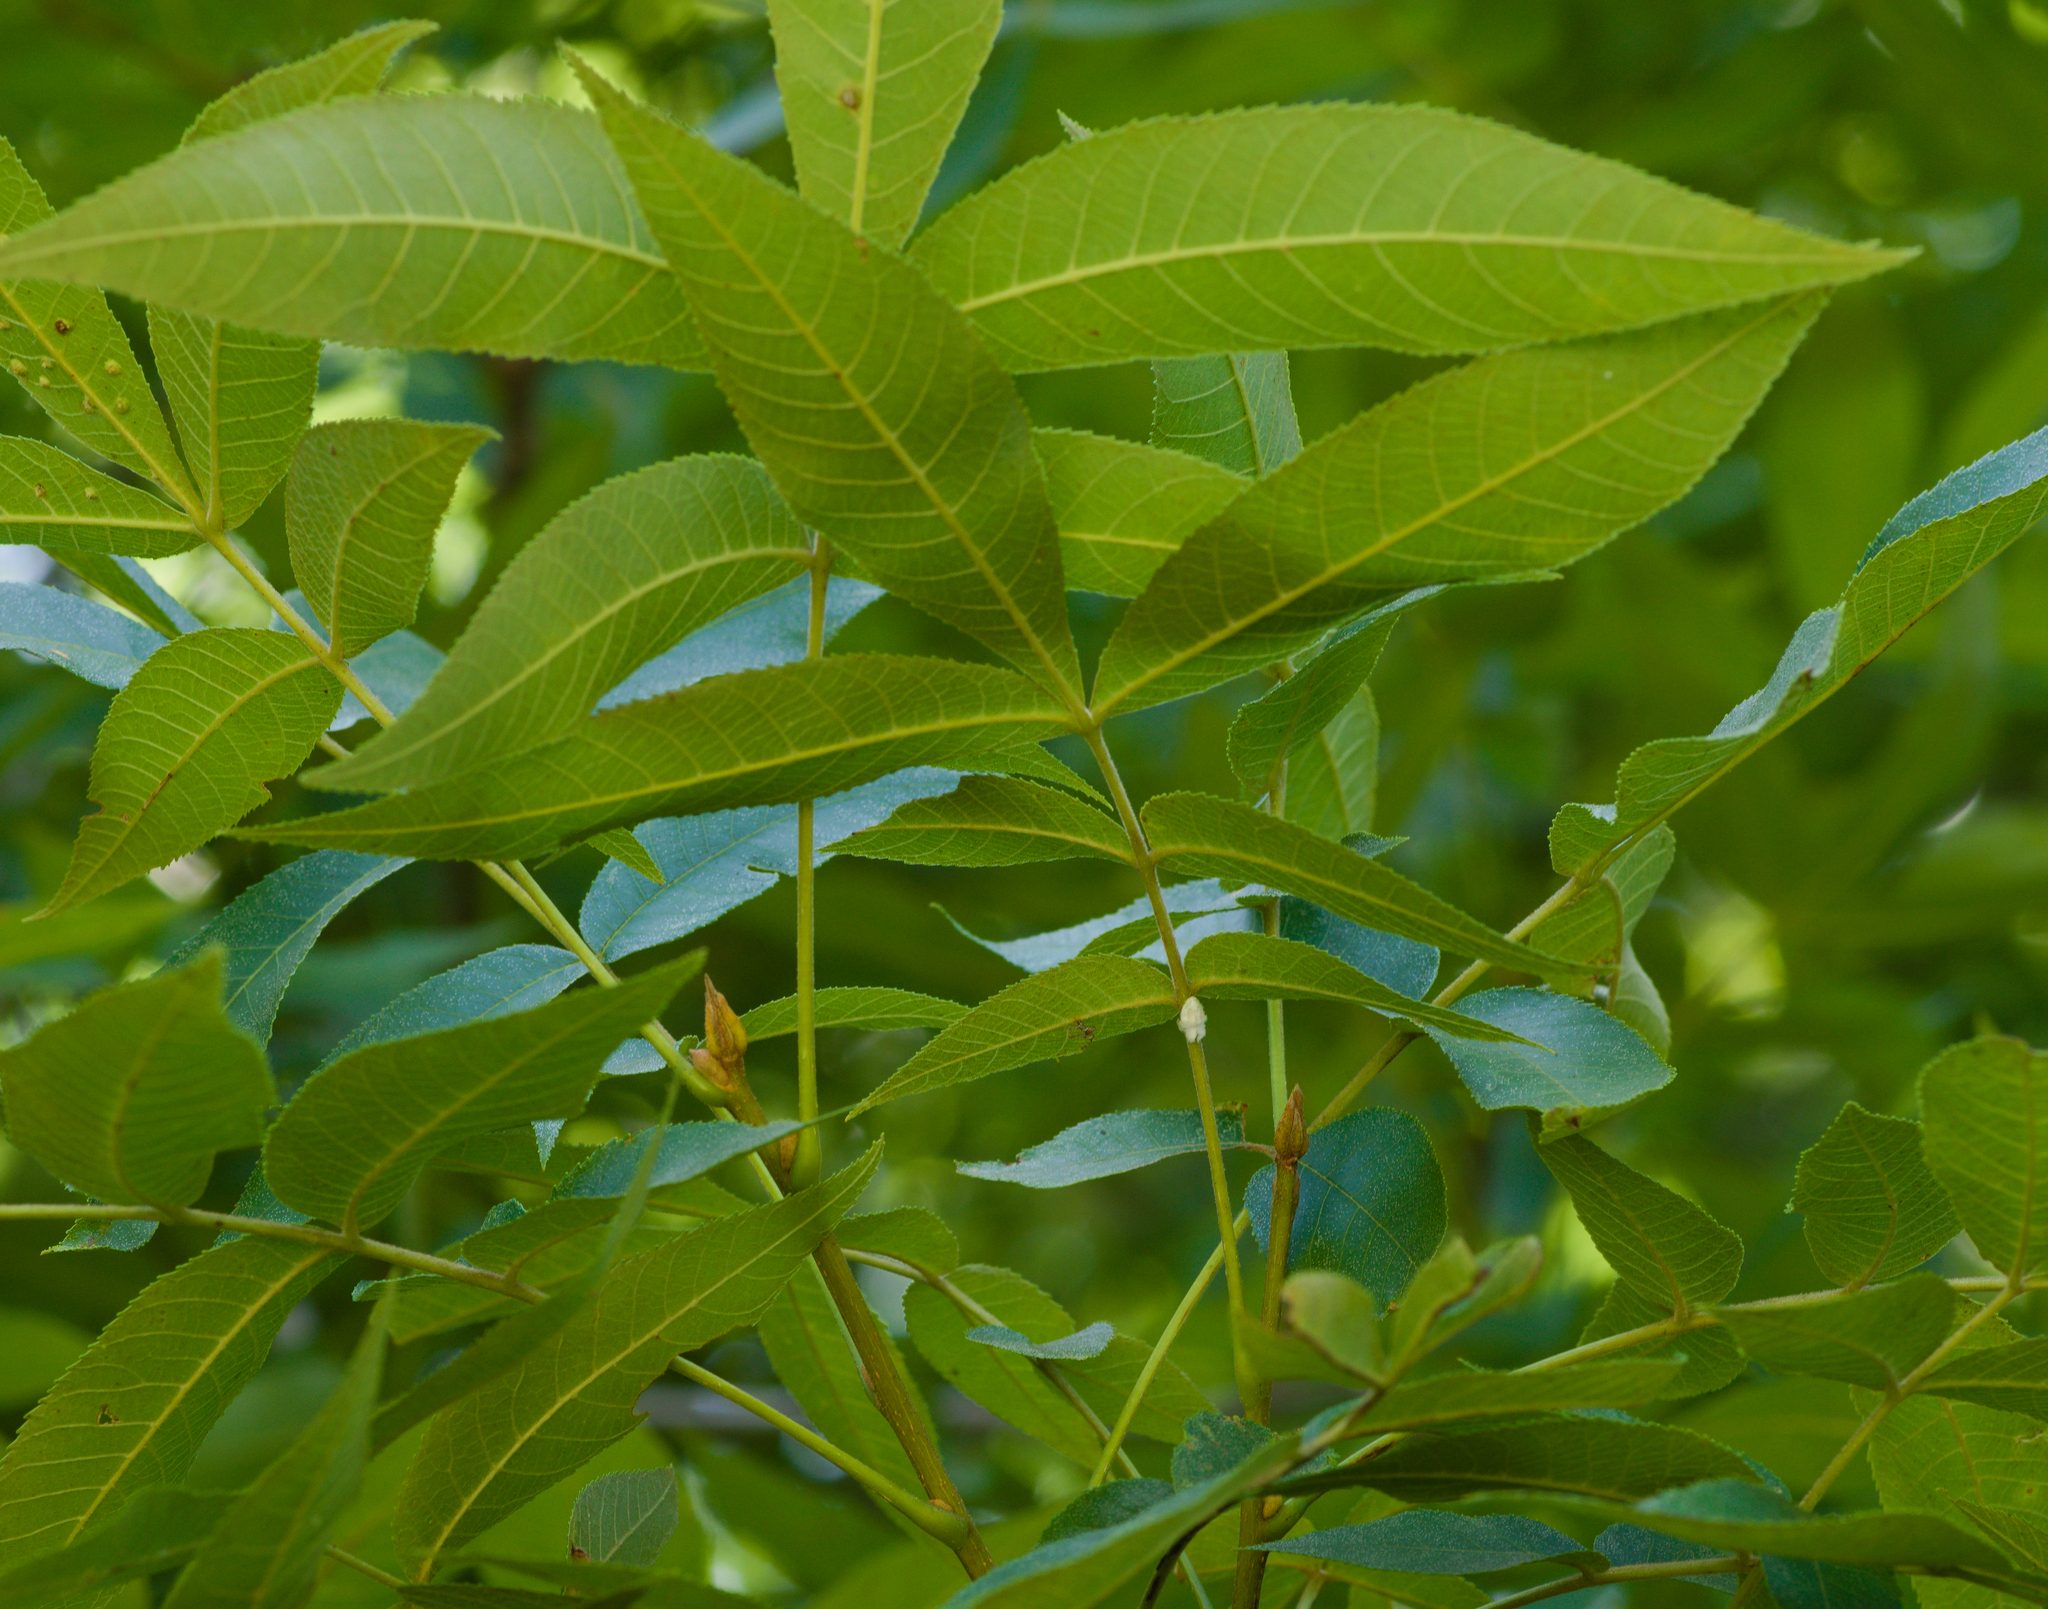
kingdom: Plantae
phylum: Tracheophyta
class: Magnoliopsida
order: Fagales
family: Juglandaceae
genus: Carya
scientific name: Carya cordiformis
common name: Bitternut hickory
